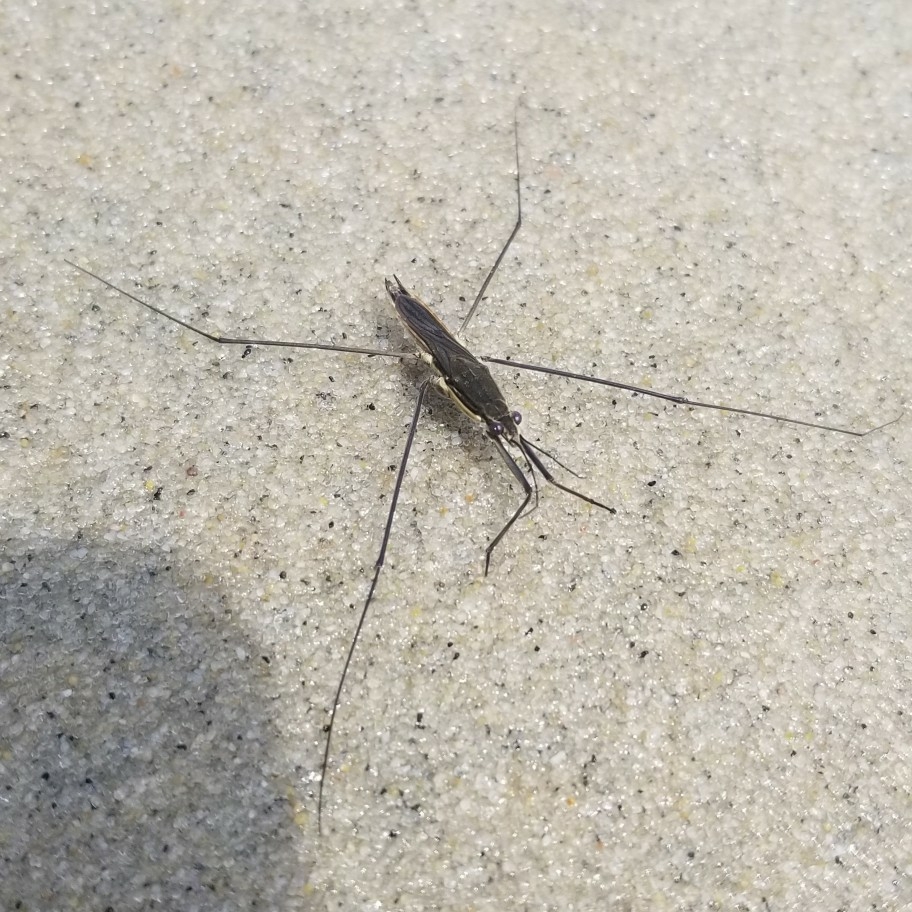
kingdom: Animalia
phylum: Arthropoda
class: Insecta
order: Hemiptera
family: Gerridae
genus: Aquarius
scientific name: Aquarius conformis
